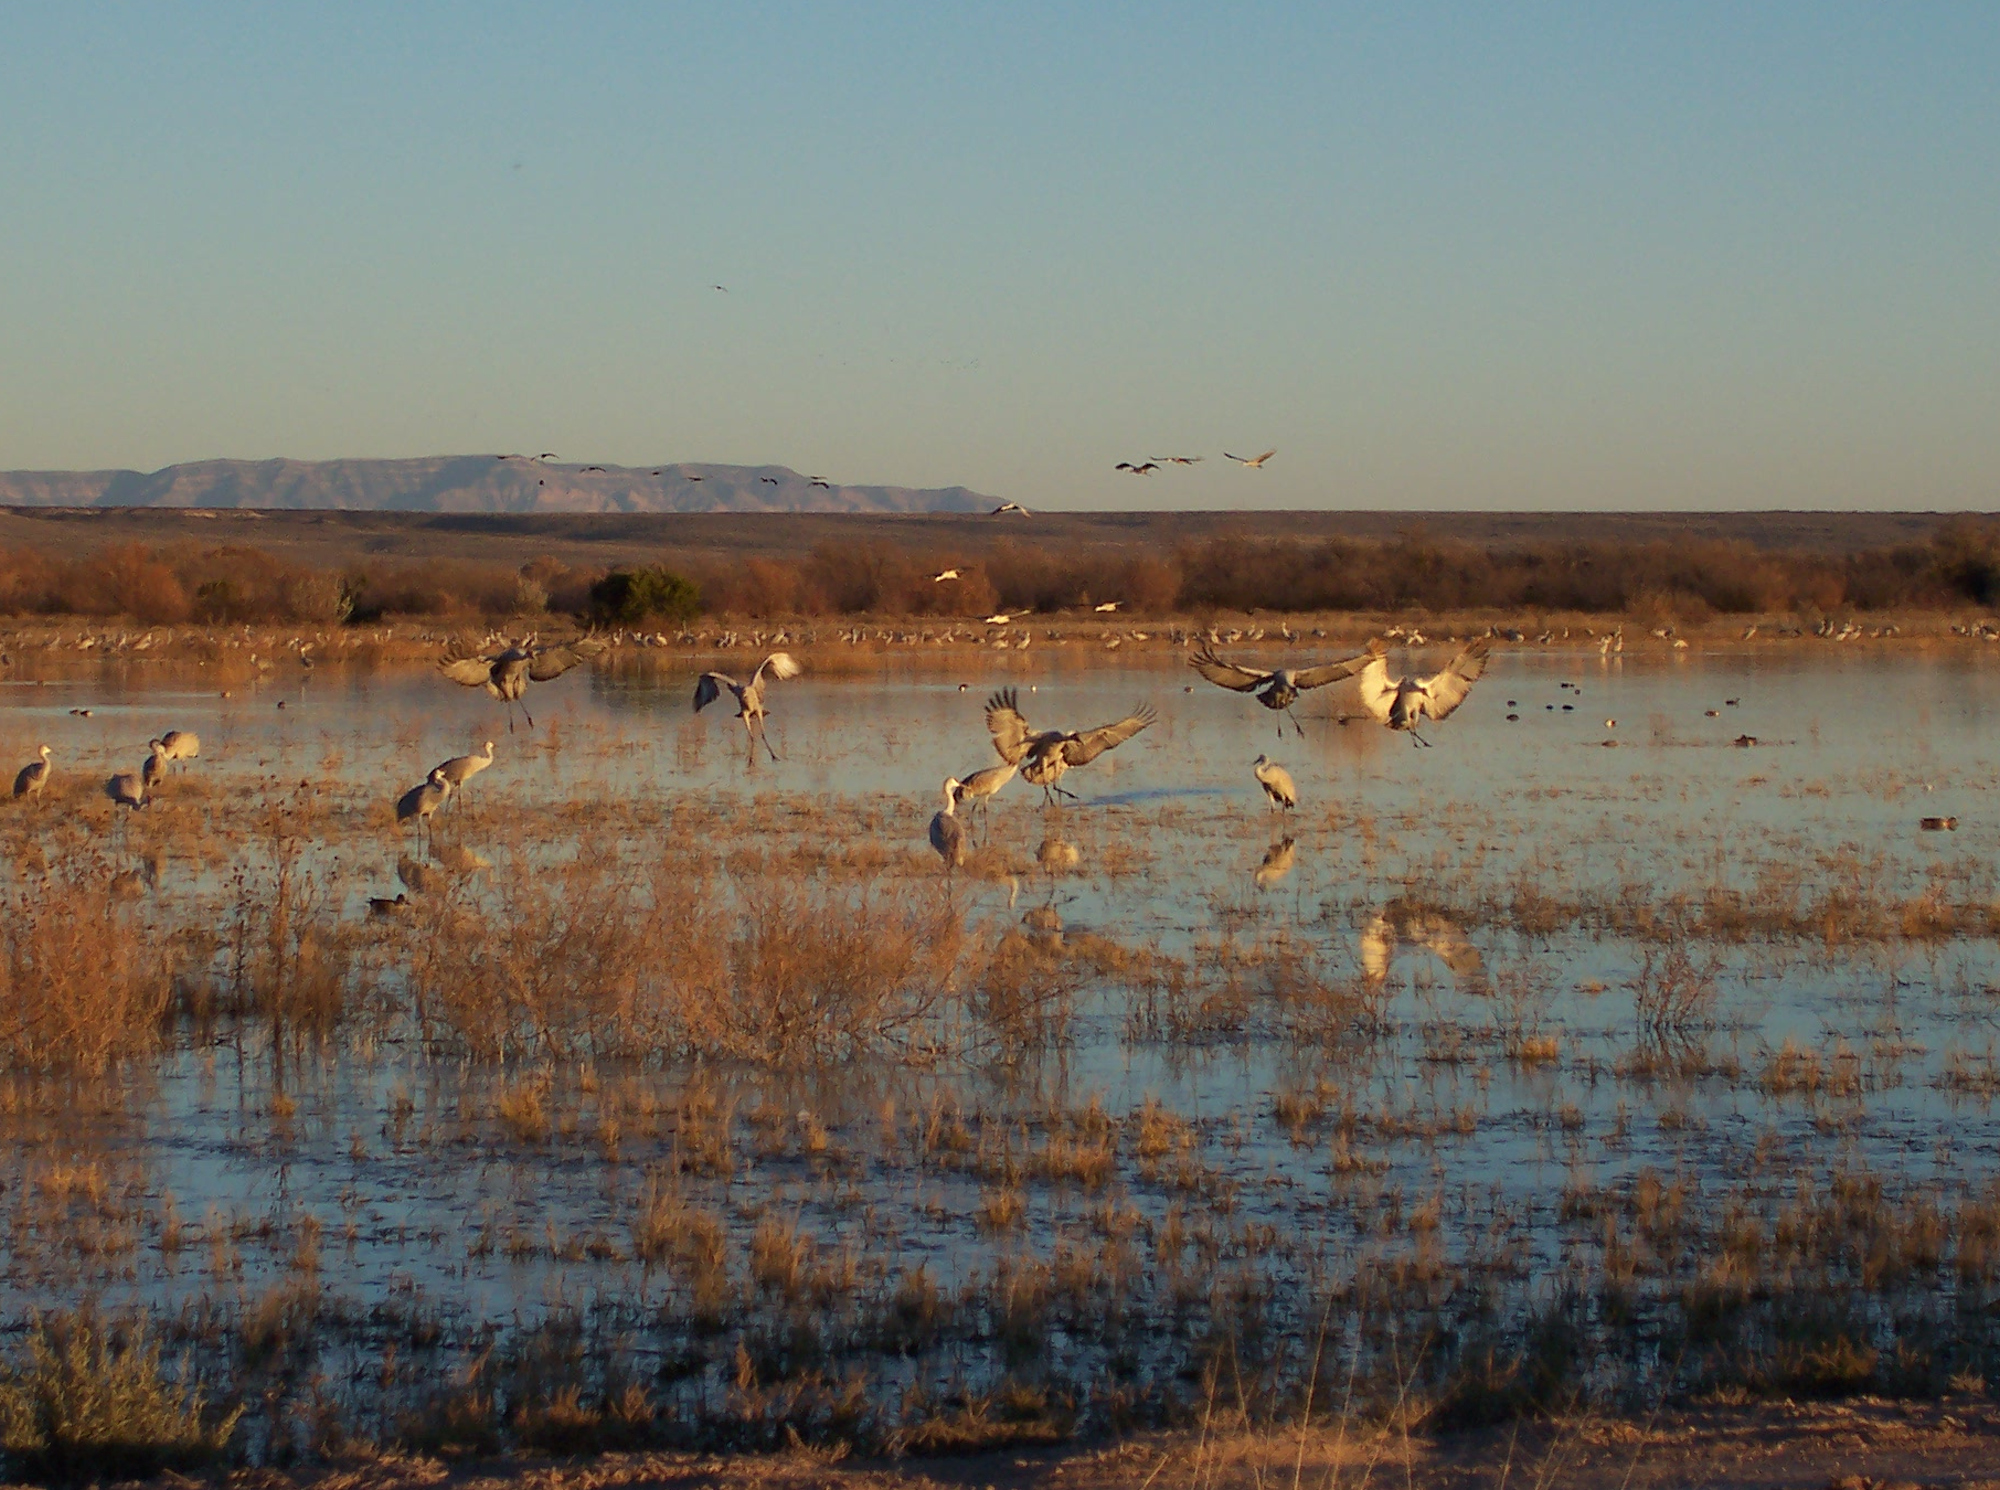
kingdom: Animalia
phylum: Chordata
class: Aves
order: Gruiformes
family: Gruidae
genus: Grus
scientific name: Grus canadensis
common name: Sandhill crane
